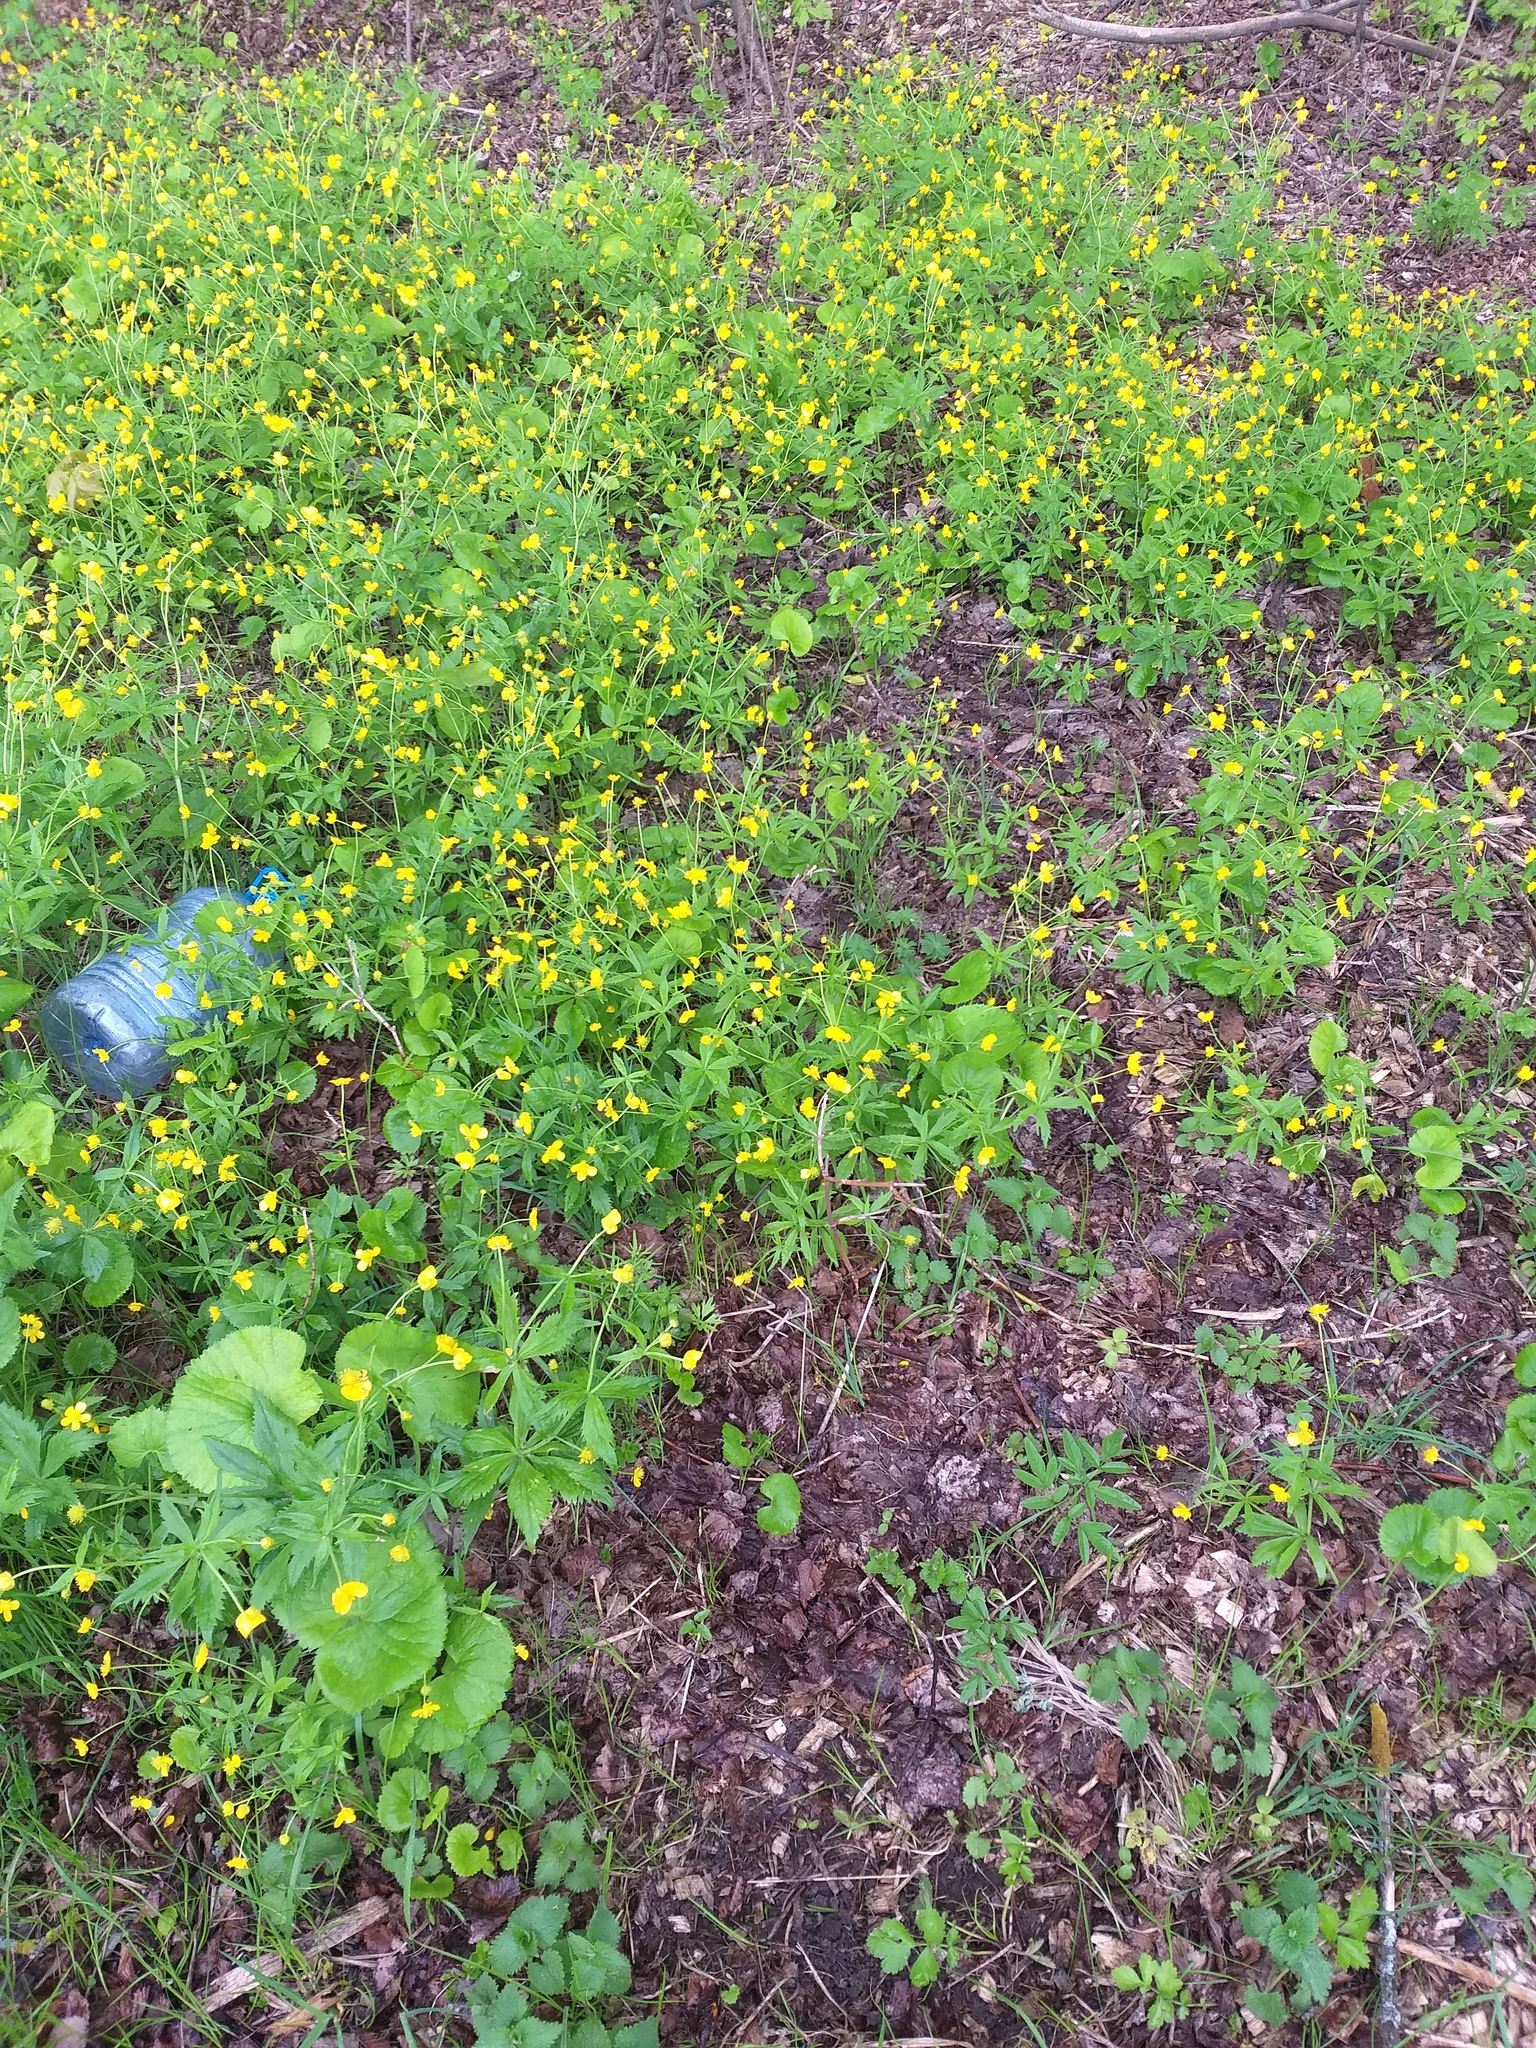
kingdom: Plantae
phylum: Tracheophyta
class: Magnoliopsida
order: Ranunculales
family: Ranunculaceae
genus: Ranunculus
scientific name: Ranunculus cassubicus
